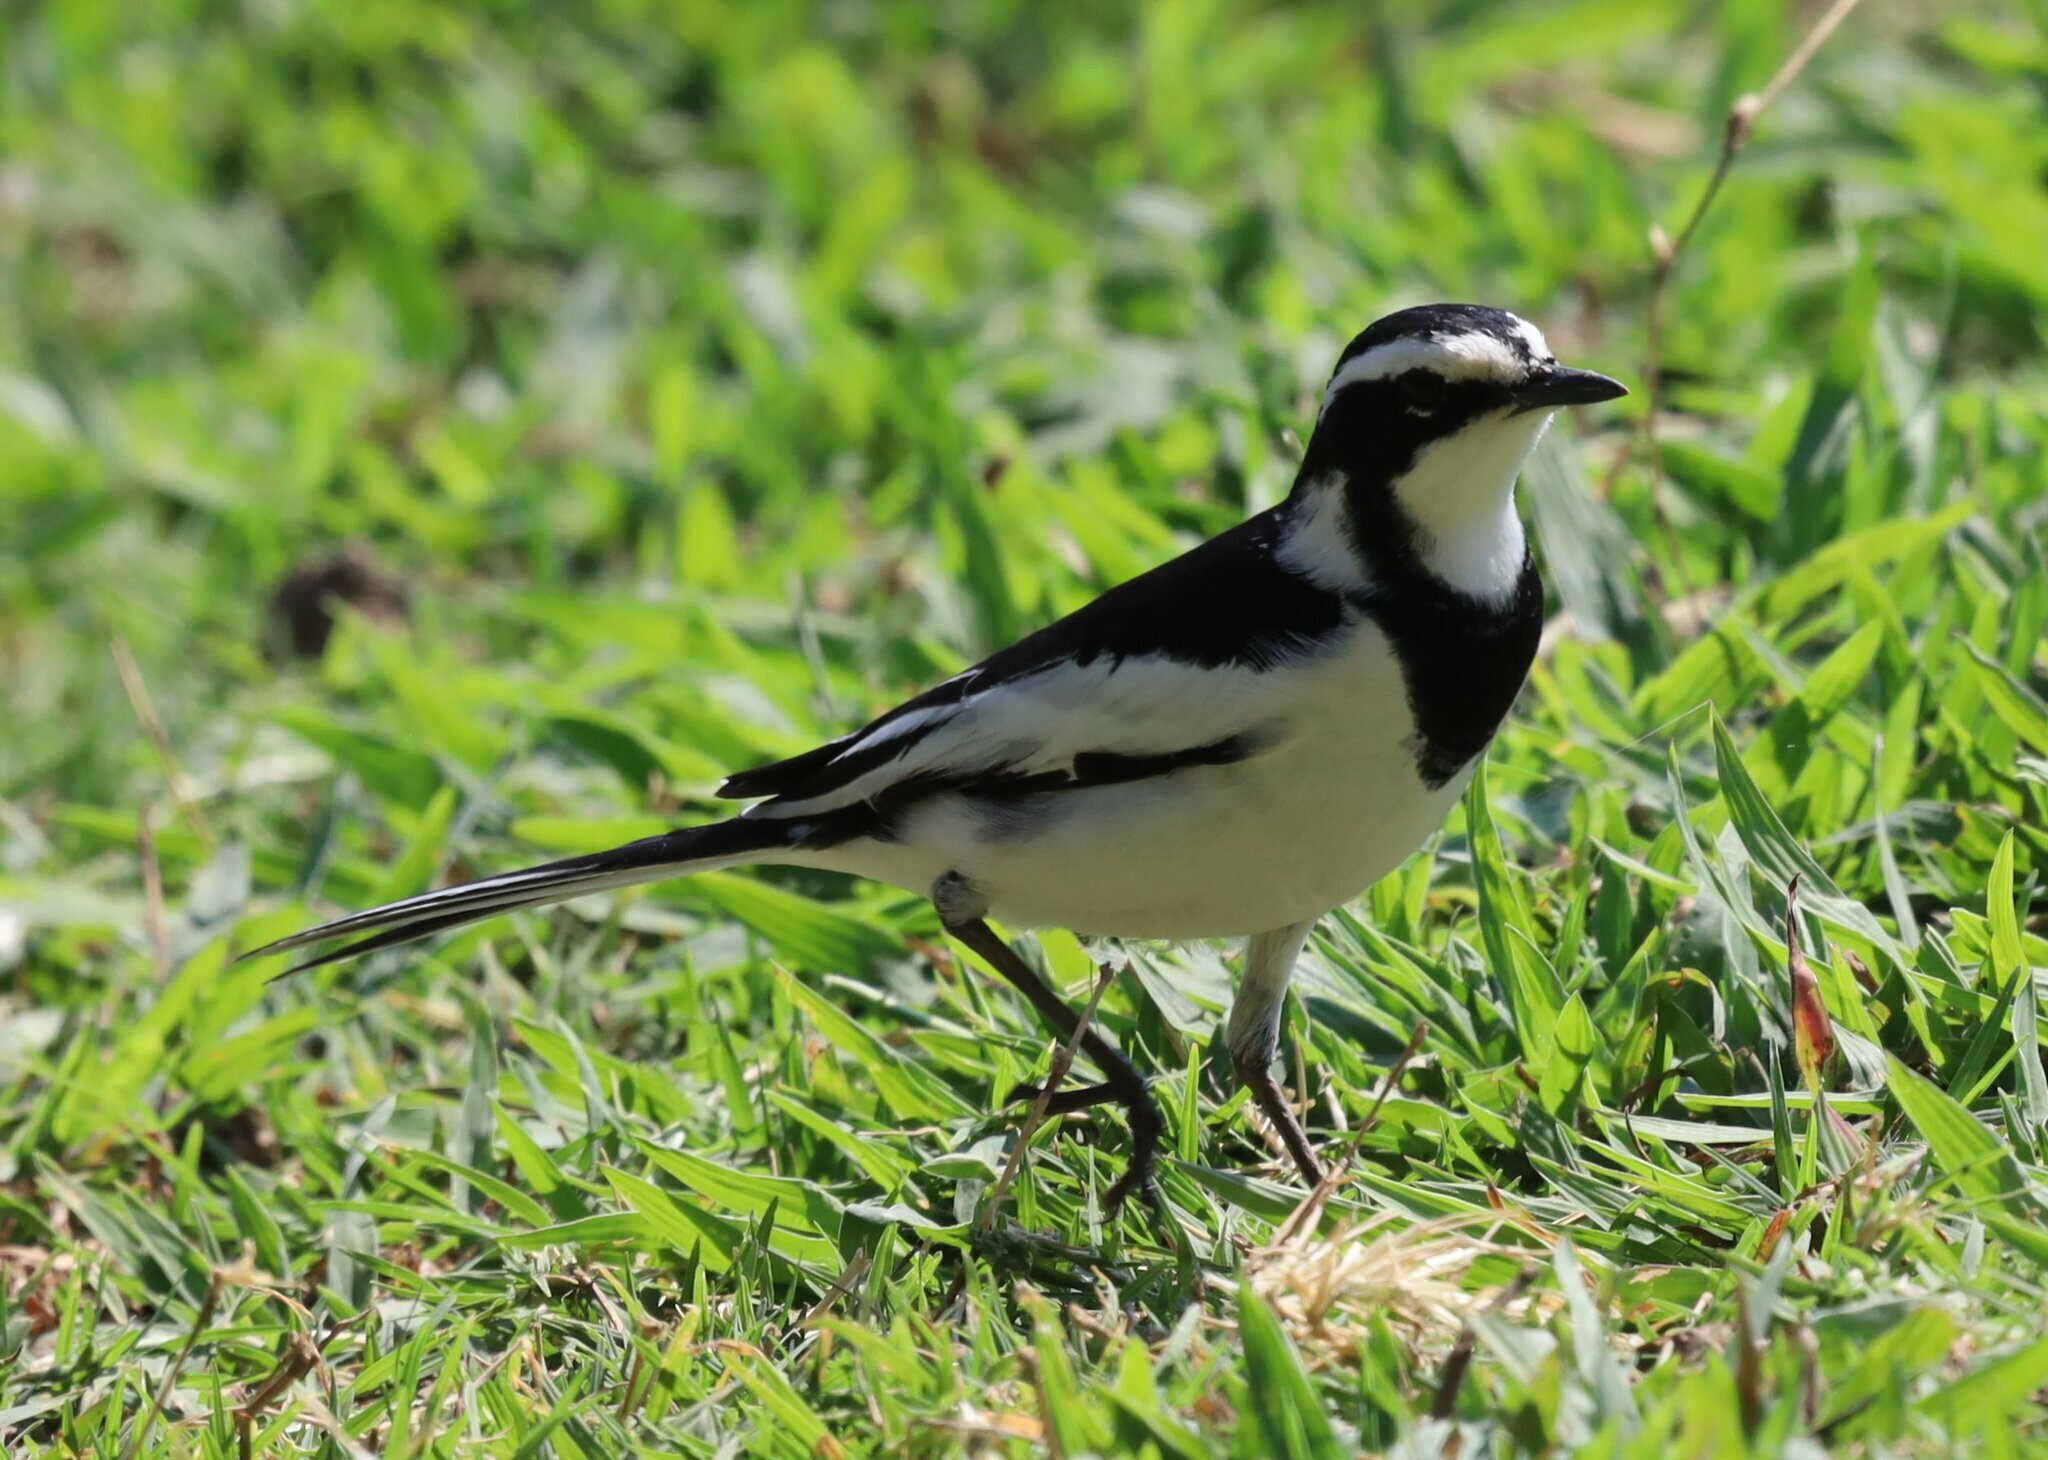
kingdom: Animalia
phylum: Chordata
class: Aves
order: Passeriformes
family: Motacillidae
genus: Motacilla
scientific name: Motacilla aguimp
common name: African pied wagtail
